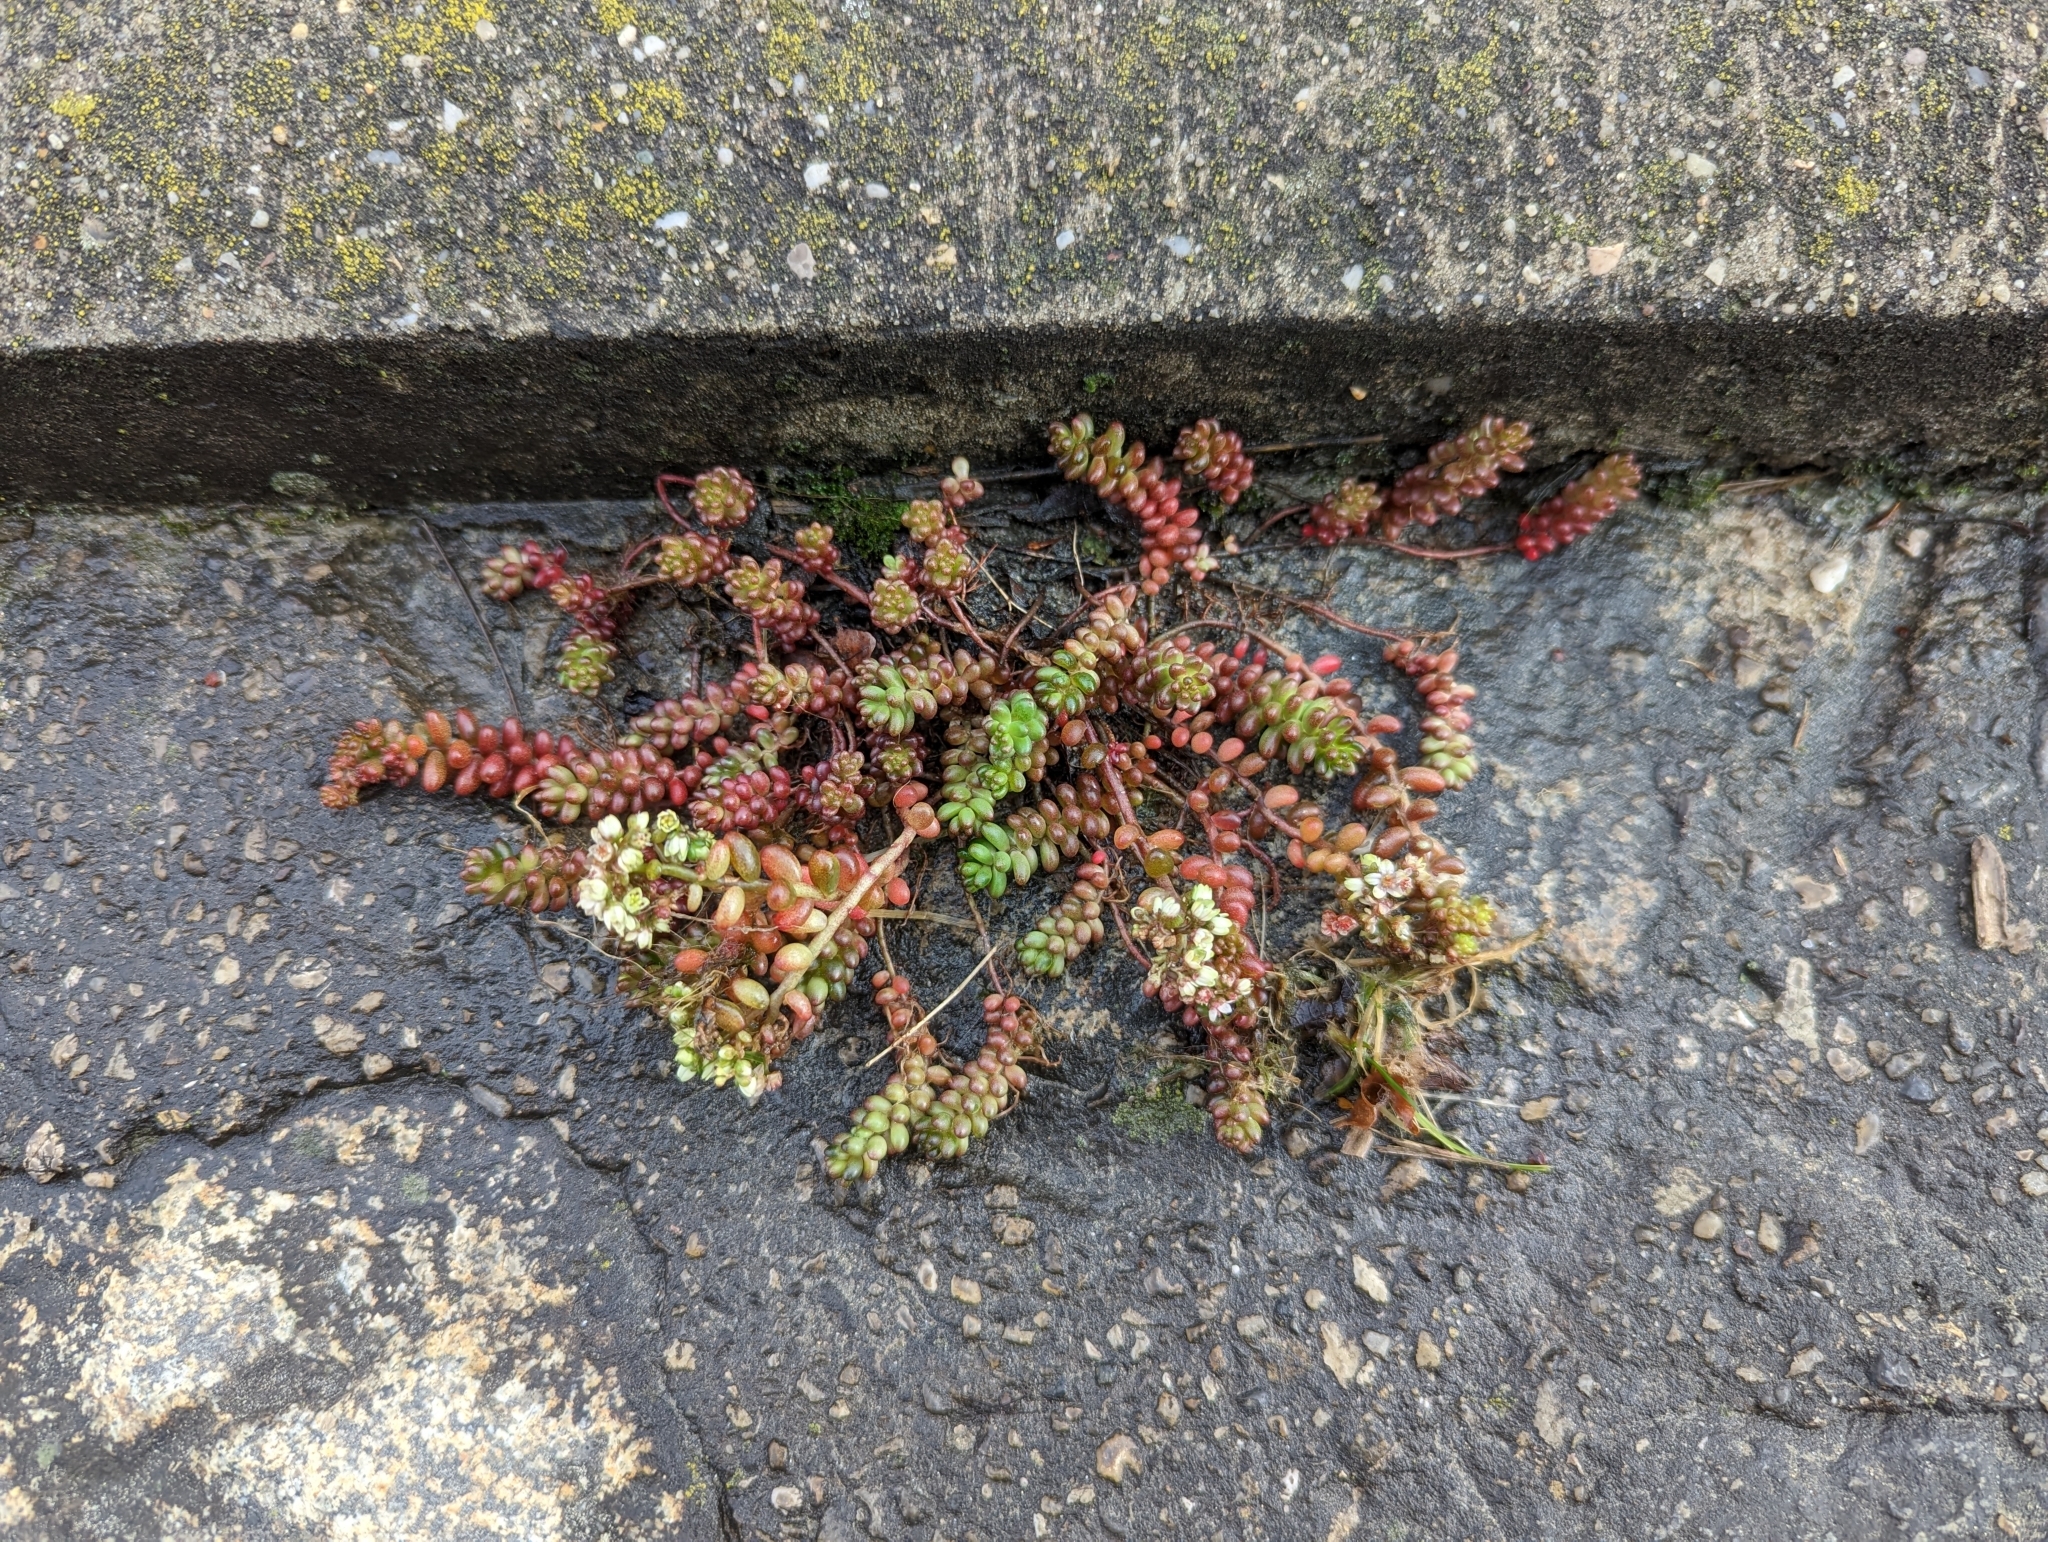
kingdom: Plantae
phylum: Tracheophyta
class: Magnoliopsida
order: Saxifragales
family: Crassulaceae
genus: Sedum
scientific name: Sedum album
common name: White stonecrop
